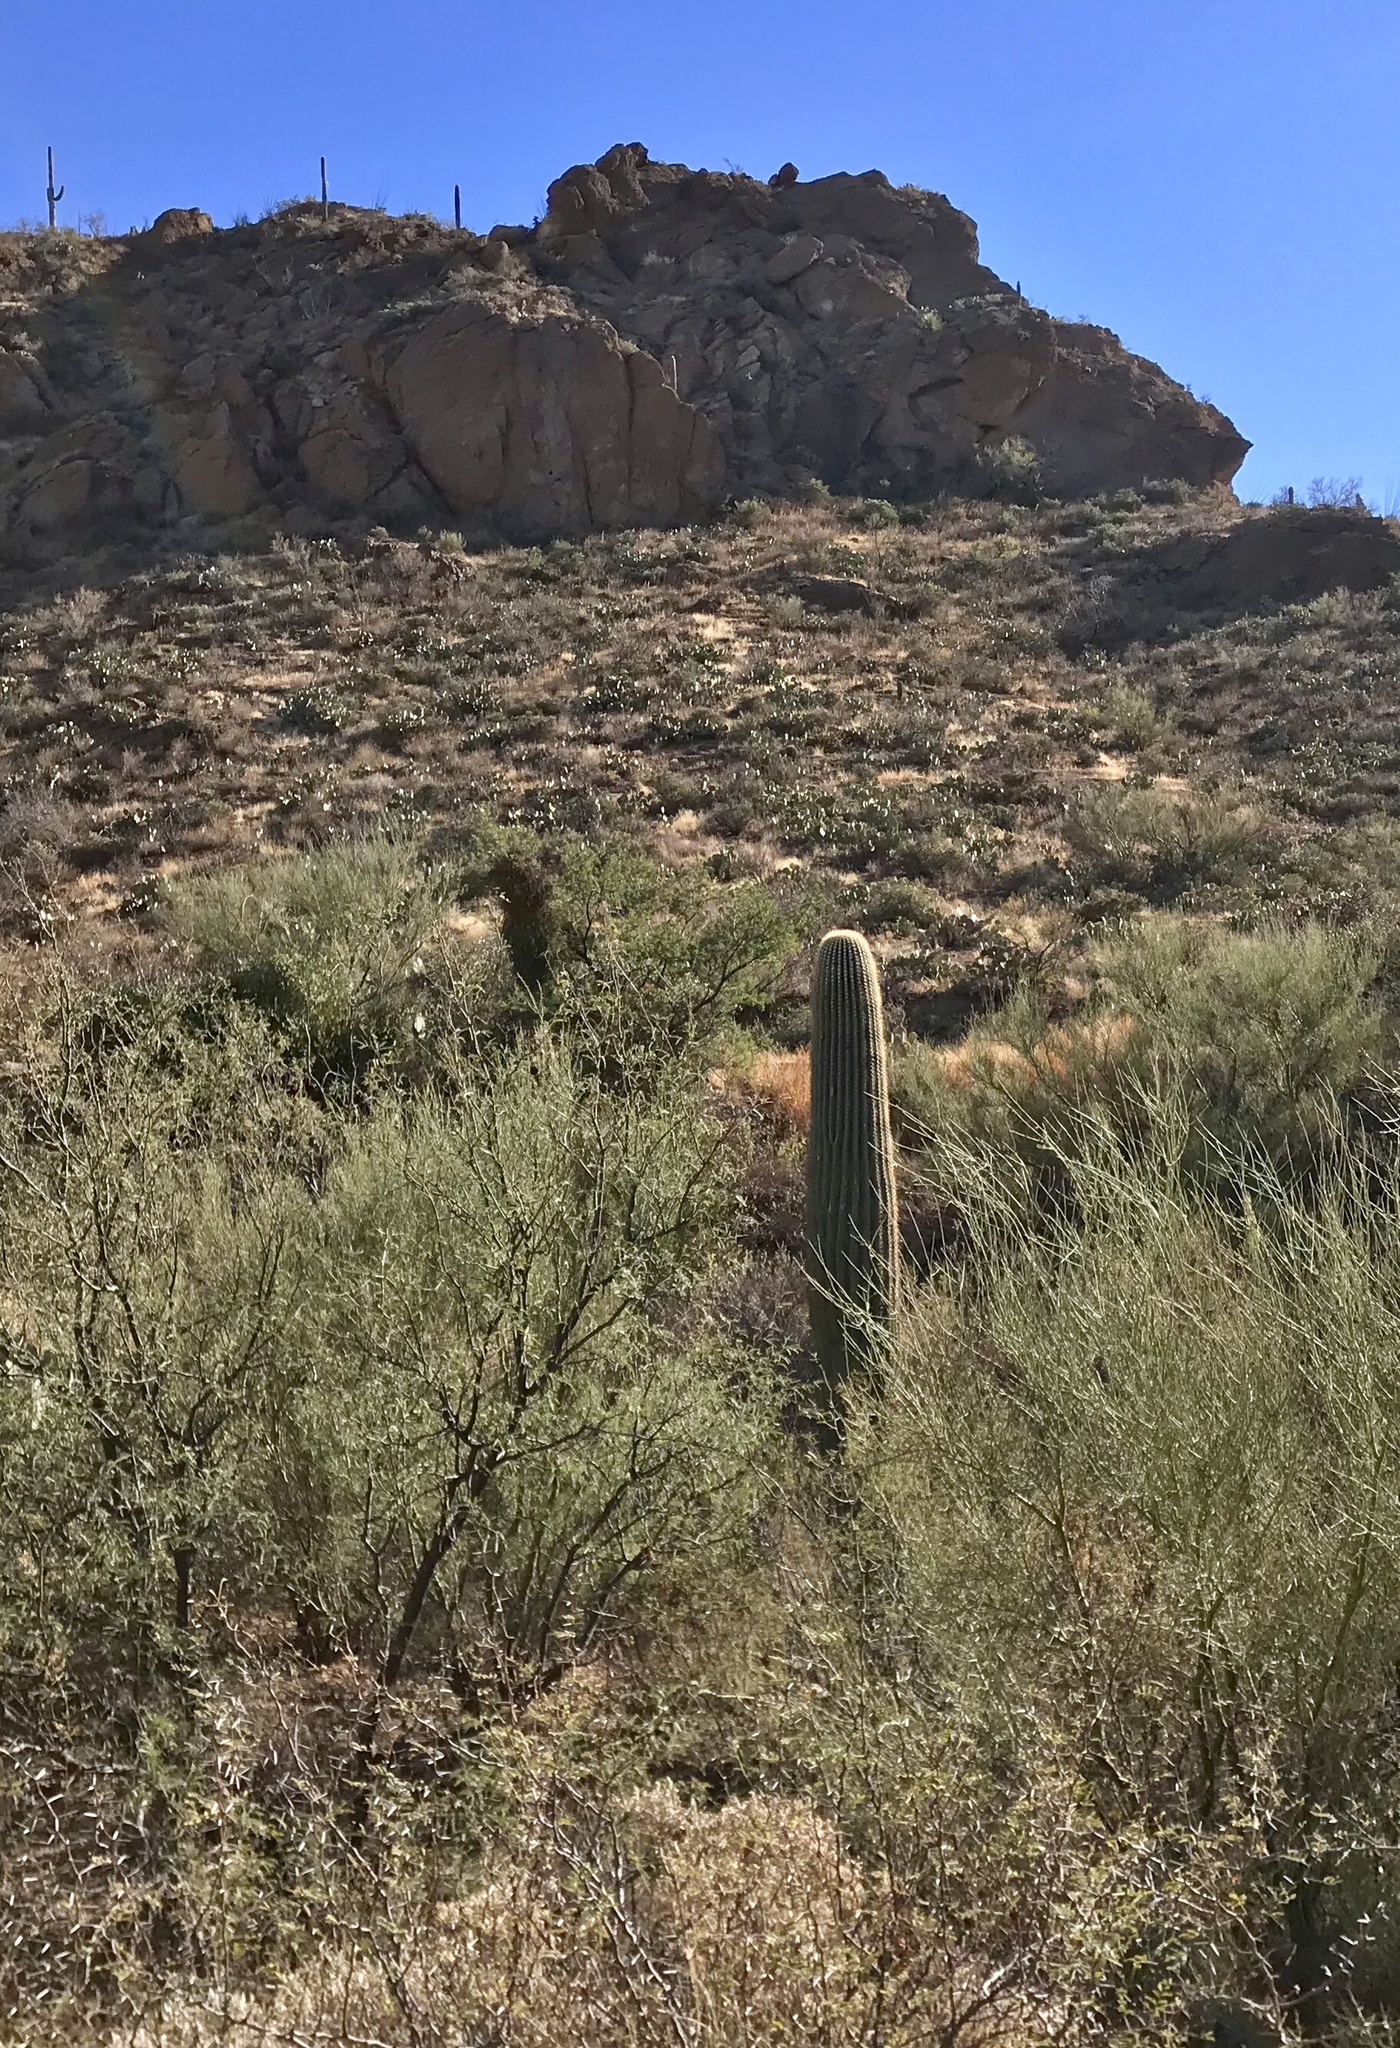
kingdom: Plantae
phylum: Tracheophyta
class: Magnoliopsida
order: Caryophyllales
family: Cactaceae
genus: Carnegiea
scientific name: Carnegiea gigantea
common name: Saguaro
